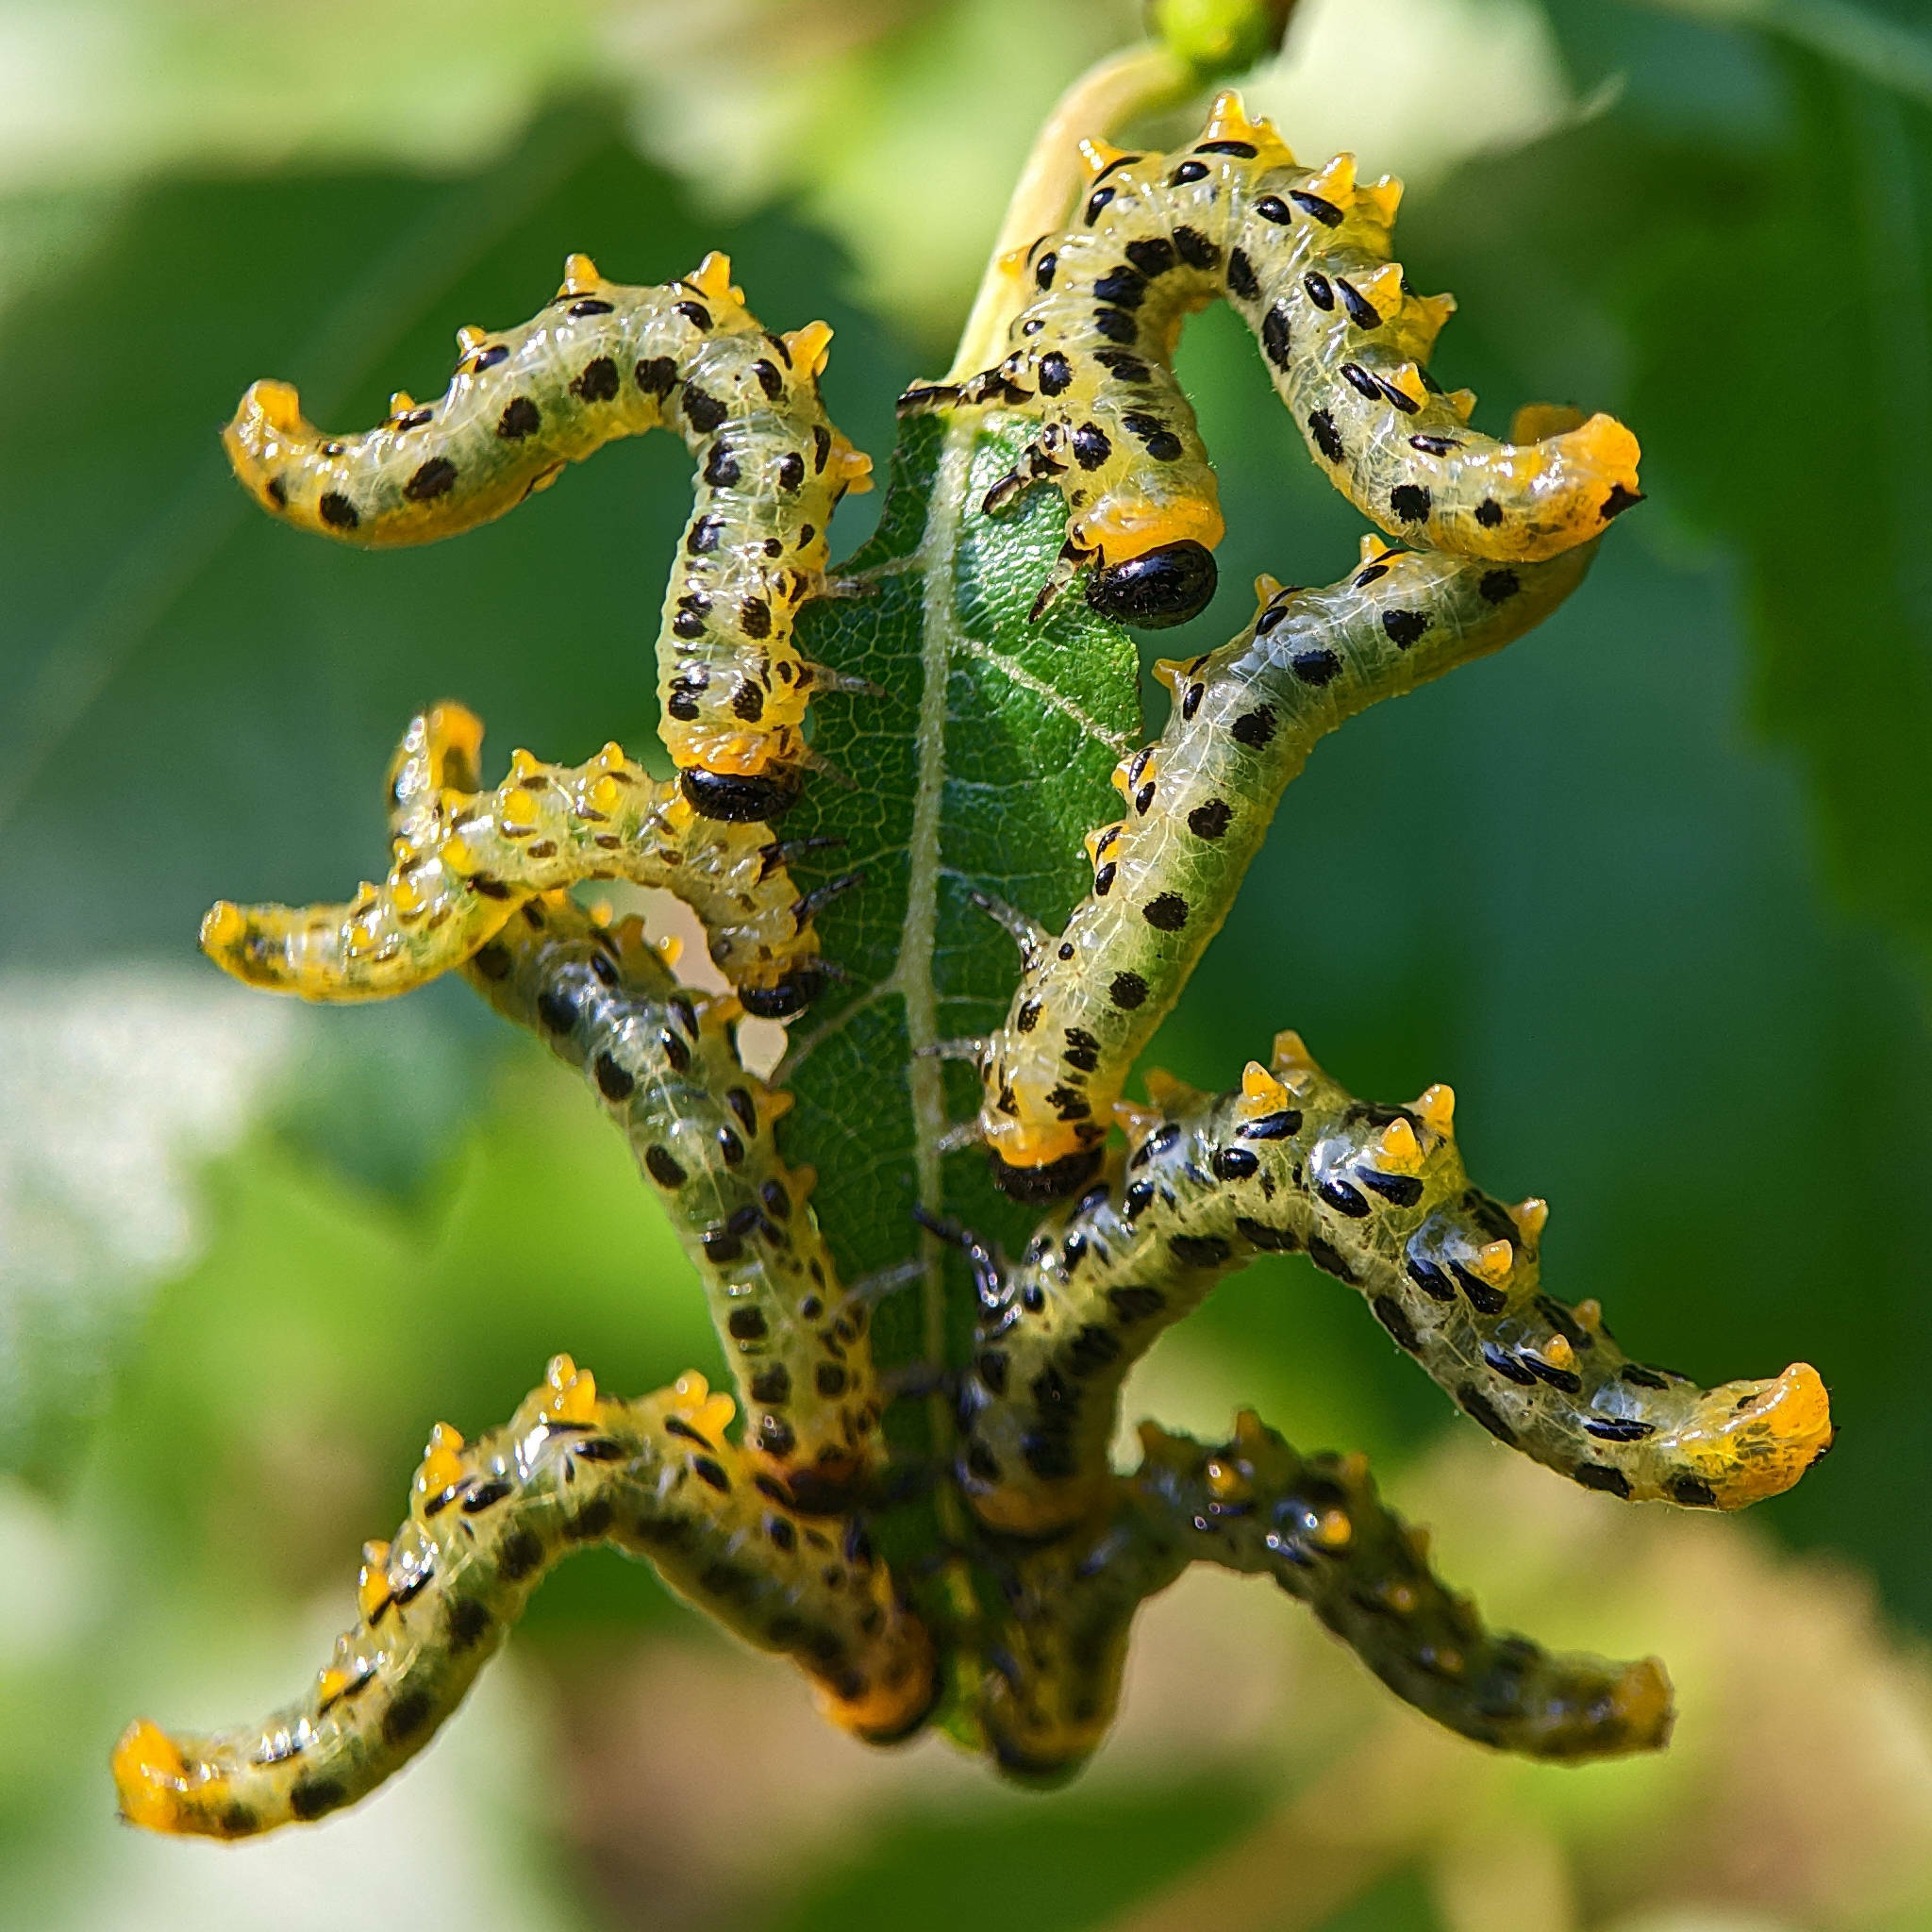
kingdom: Animalia
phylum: Arthropoda
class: Insecta
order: Hymenoptera
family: Tenthredinidae
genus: Craesus
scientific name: Craesus septentrionalis
